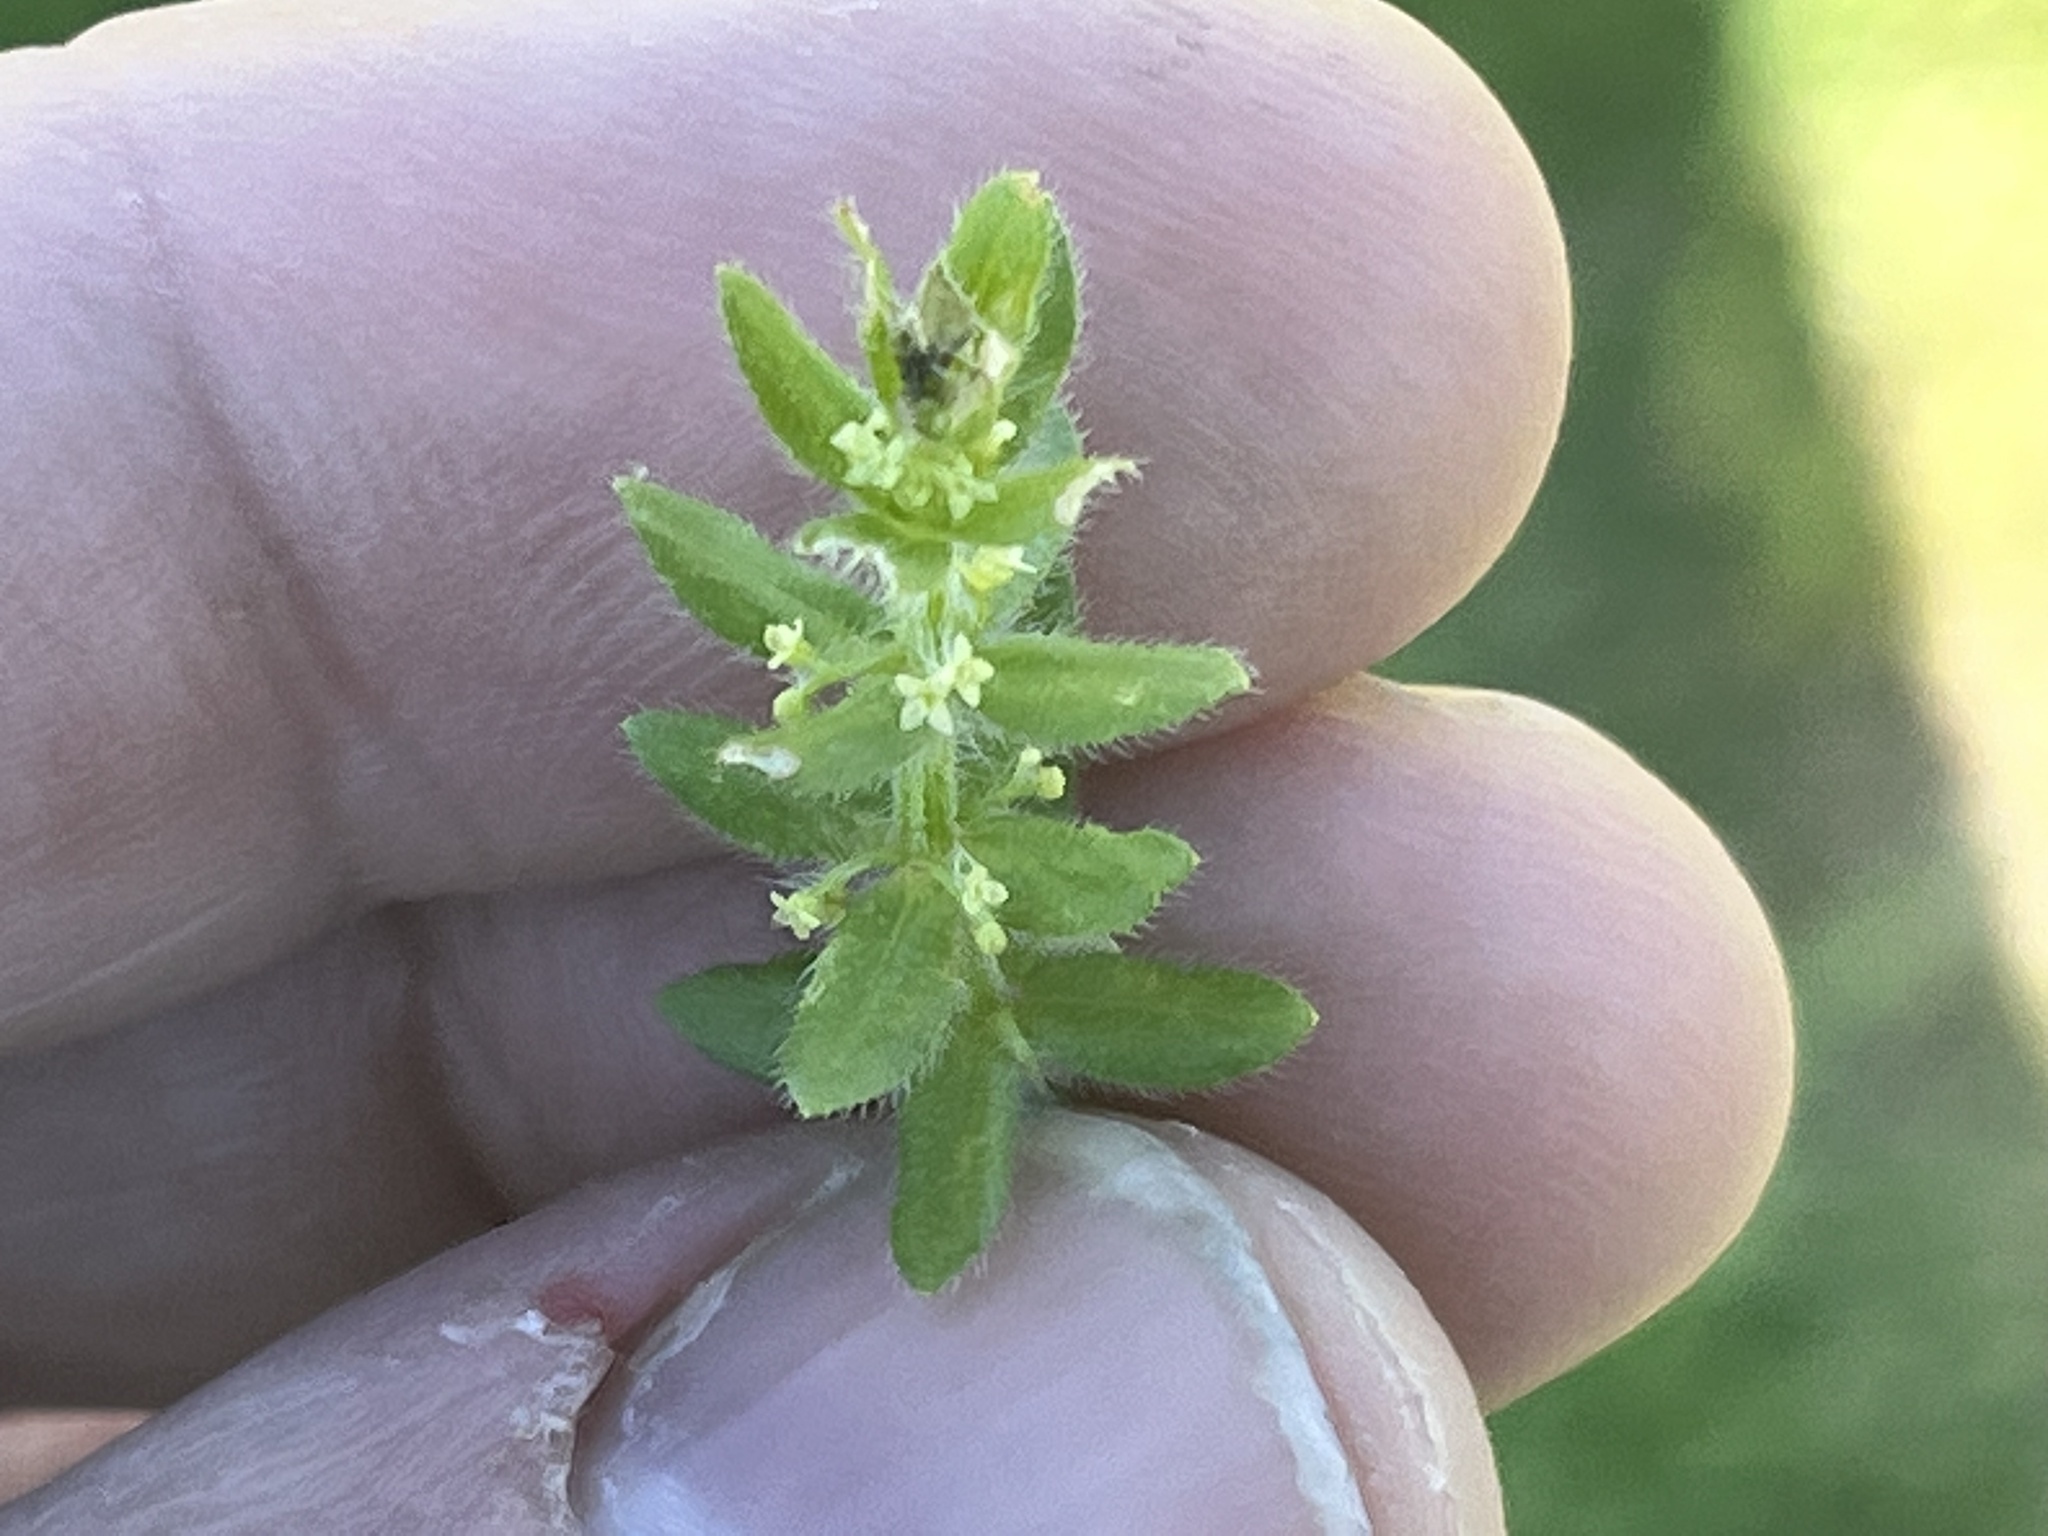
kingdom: Plantae
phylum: Tracheophyta
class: Magnoliopsida
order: Gentianales
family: Rubiaceae
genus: Cruciata
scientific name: Cruciata pedemontana
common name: Piedmont bedstraw
